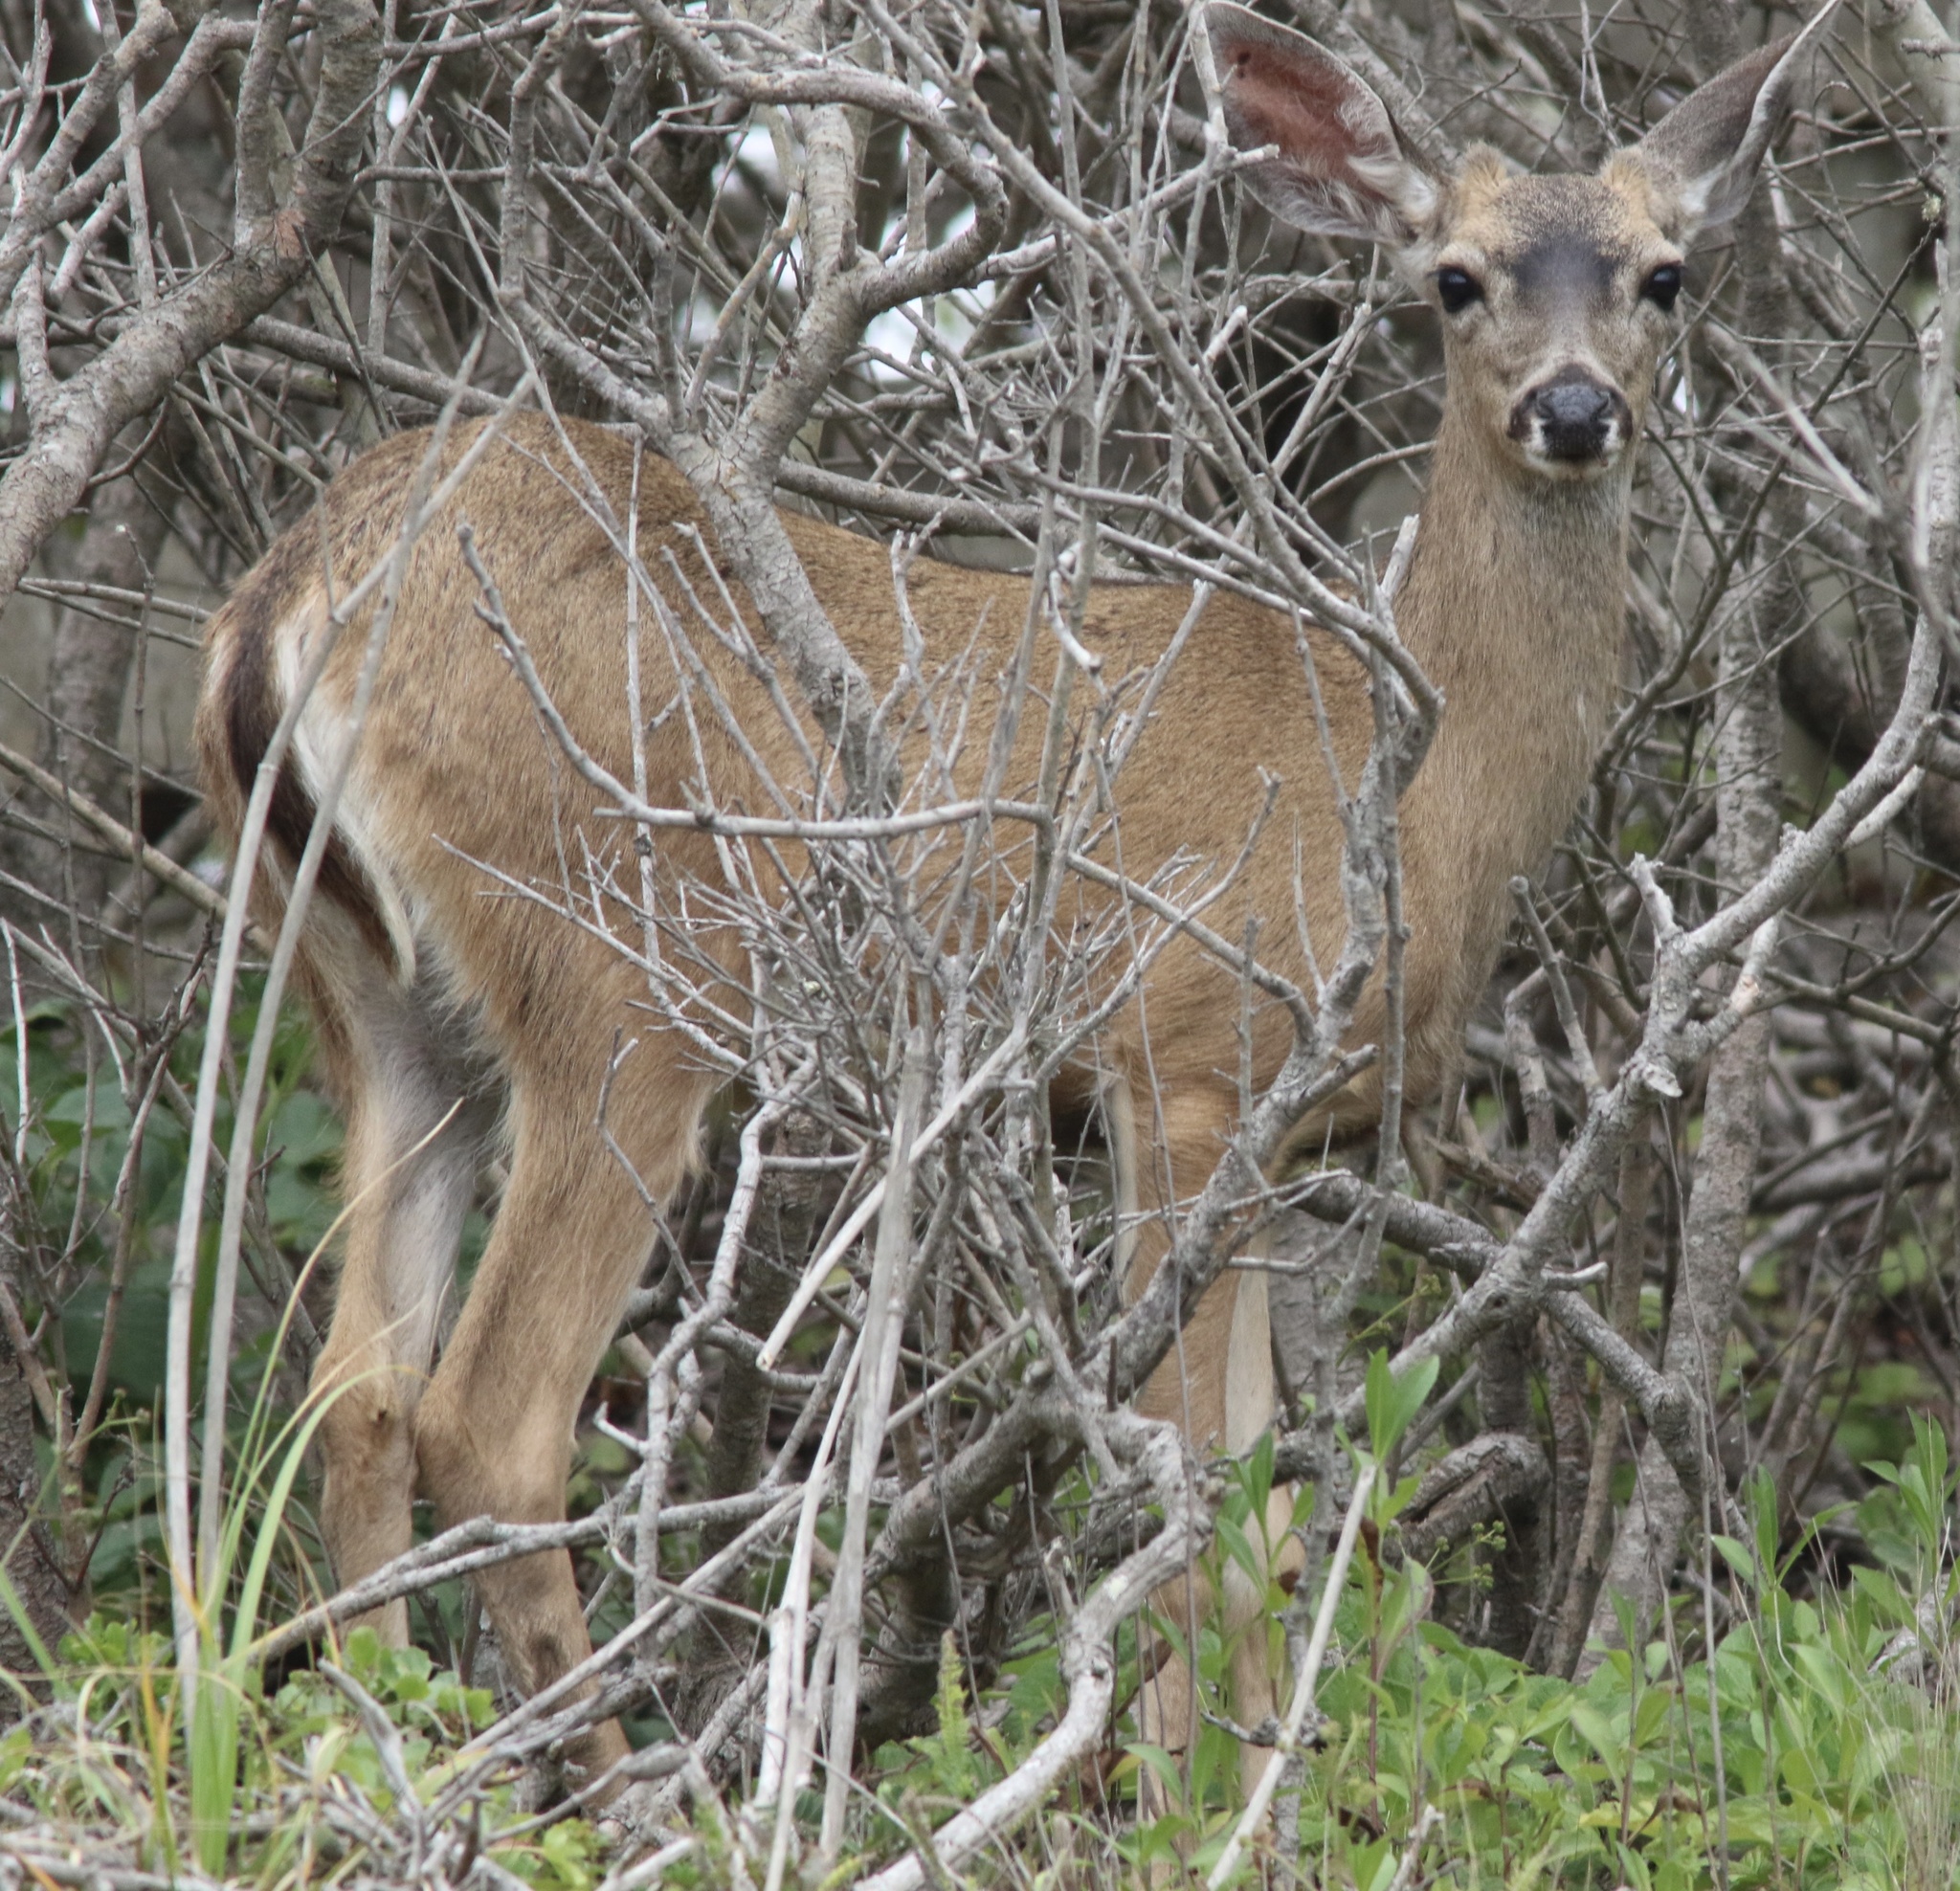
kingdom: Animalia
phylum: Chordata
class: Mammalia
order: Artiodactyla
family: Cervidae
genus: Odocoileus
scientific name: Odocoileus hemionus
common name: Mule deer
